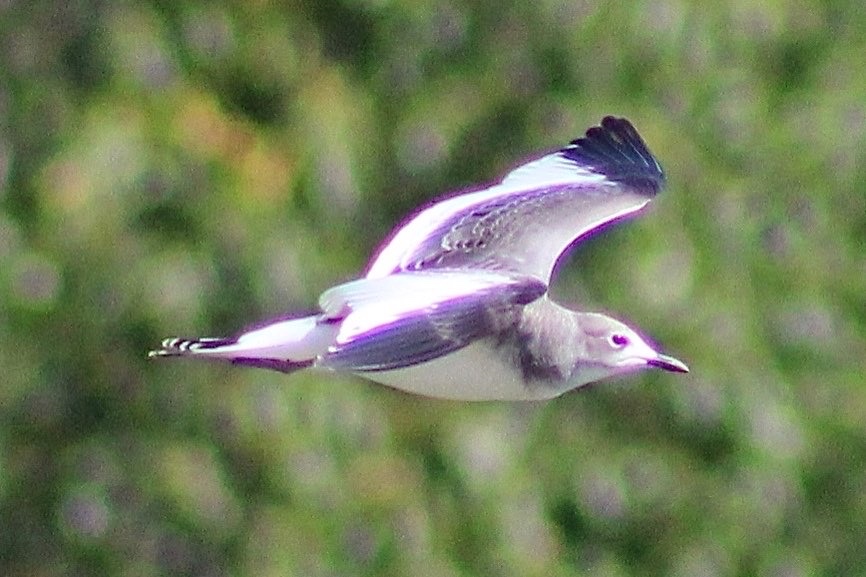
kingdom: Animalia
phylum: Chordata
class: Aves
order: Charadriiformes
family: Laridae
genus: Xema
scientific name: Xema sabini
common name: Sabine's gull
